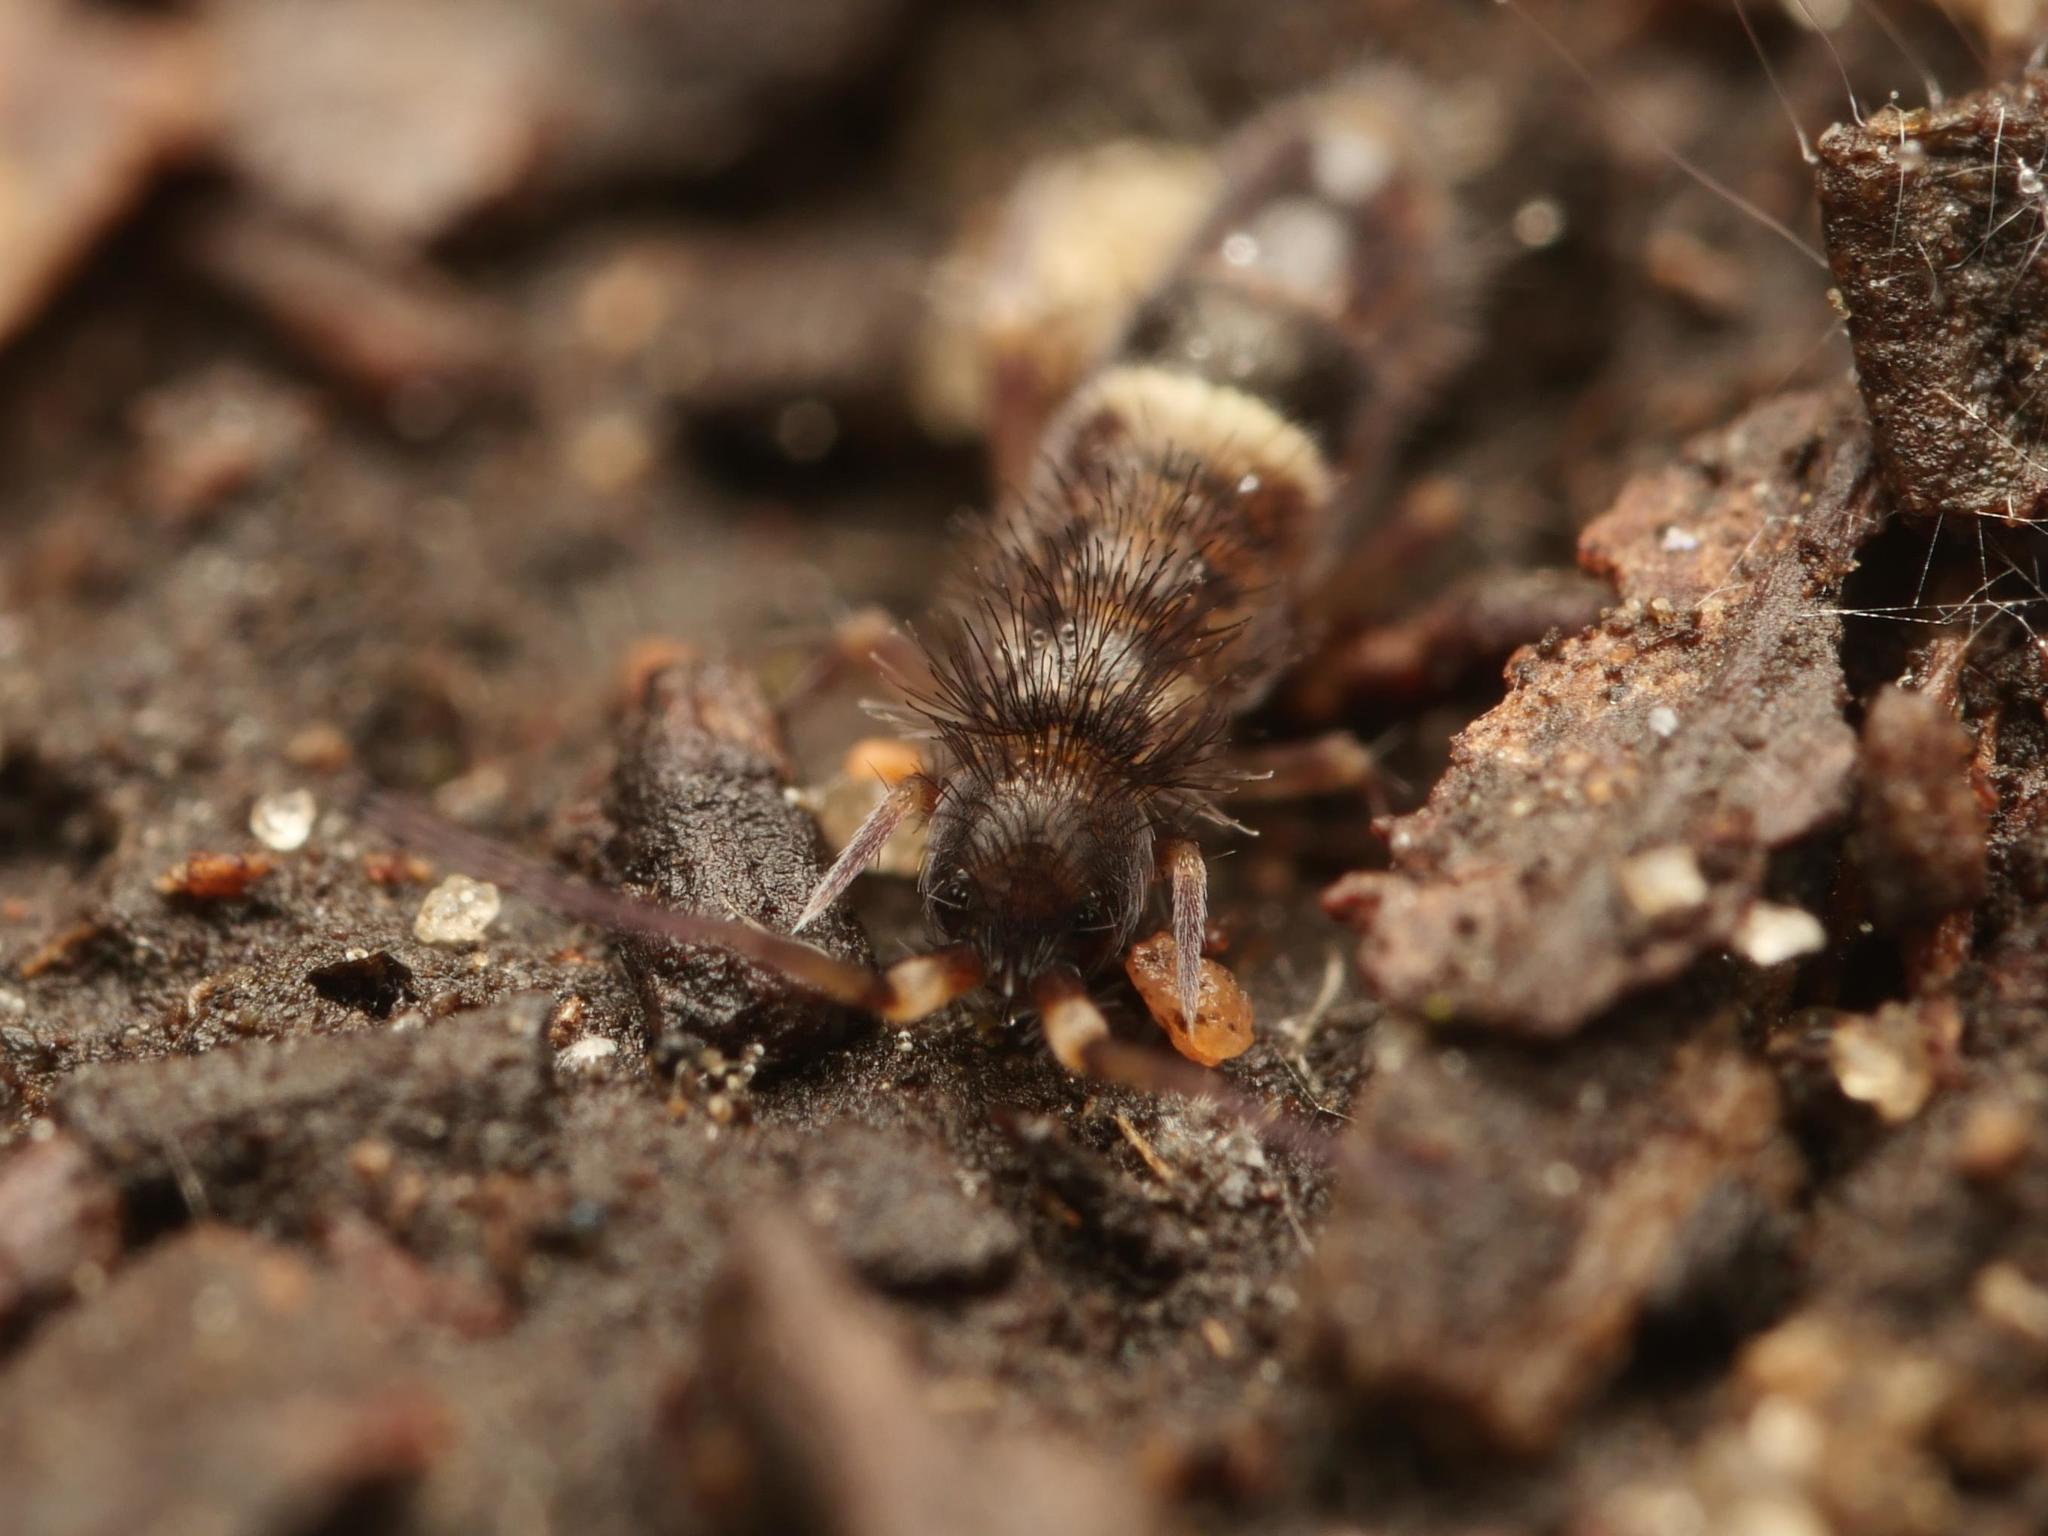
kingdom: Animalia
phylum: Arthropoda
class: Collembola
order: Entomobryomorpha
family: Orchesellidae
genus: Orchesella
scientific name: Orchesella cincta
